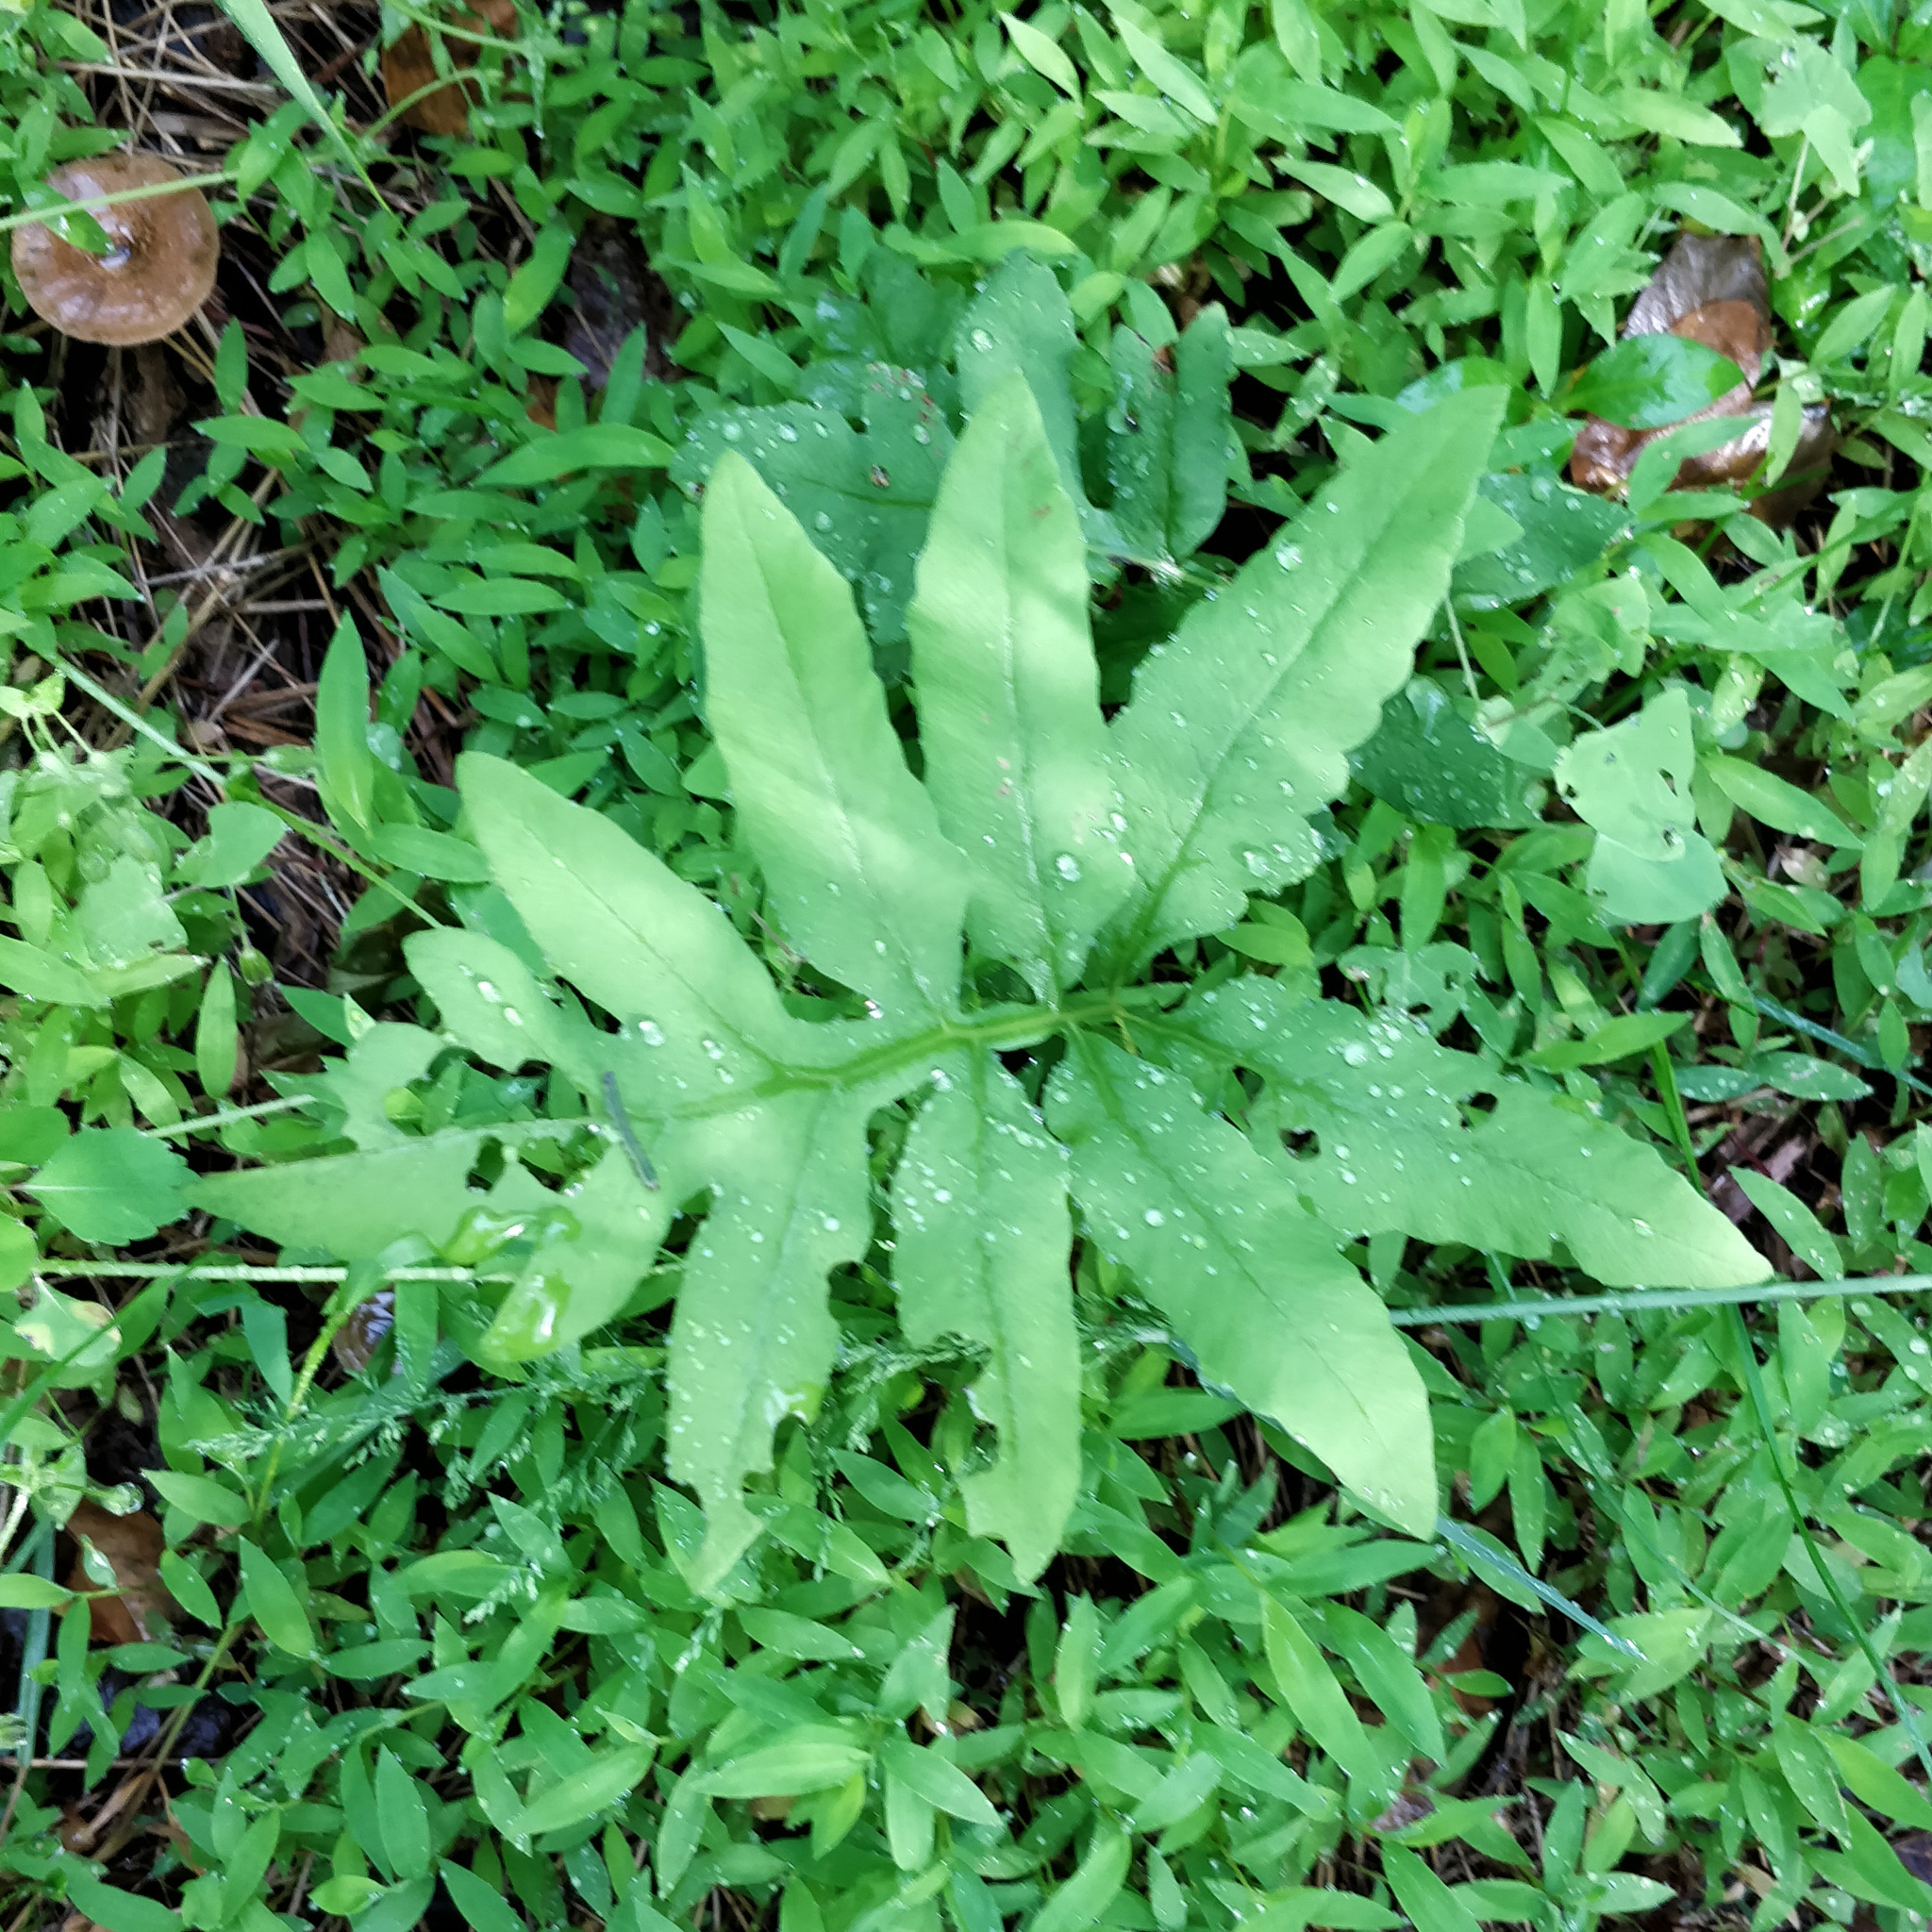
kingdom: Plantae
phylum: Tracheophyta
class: Polypodiopsida
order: Polypodiales
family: Onocleaceae
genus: Onoclea
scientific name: Onoclea sensibilis
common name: Sensitive fern
